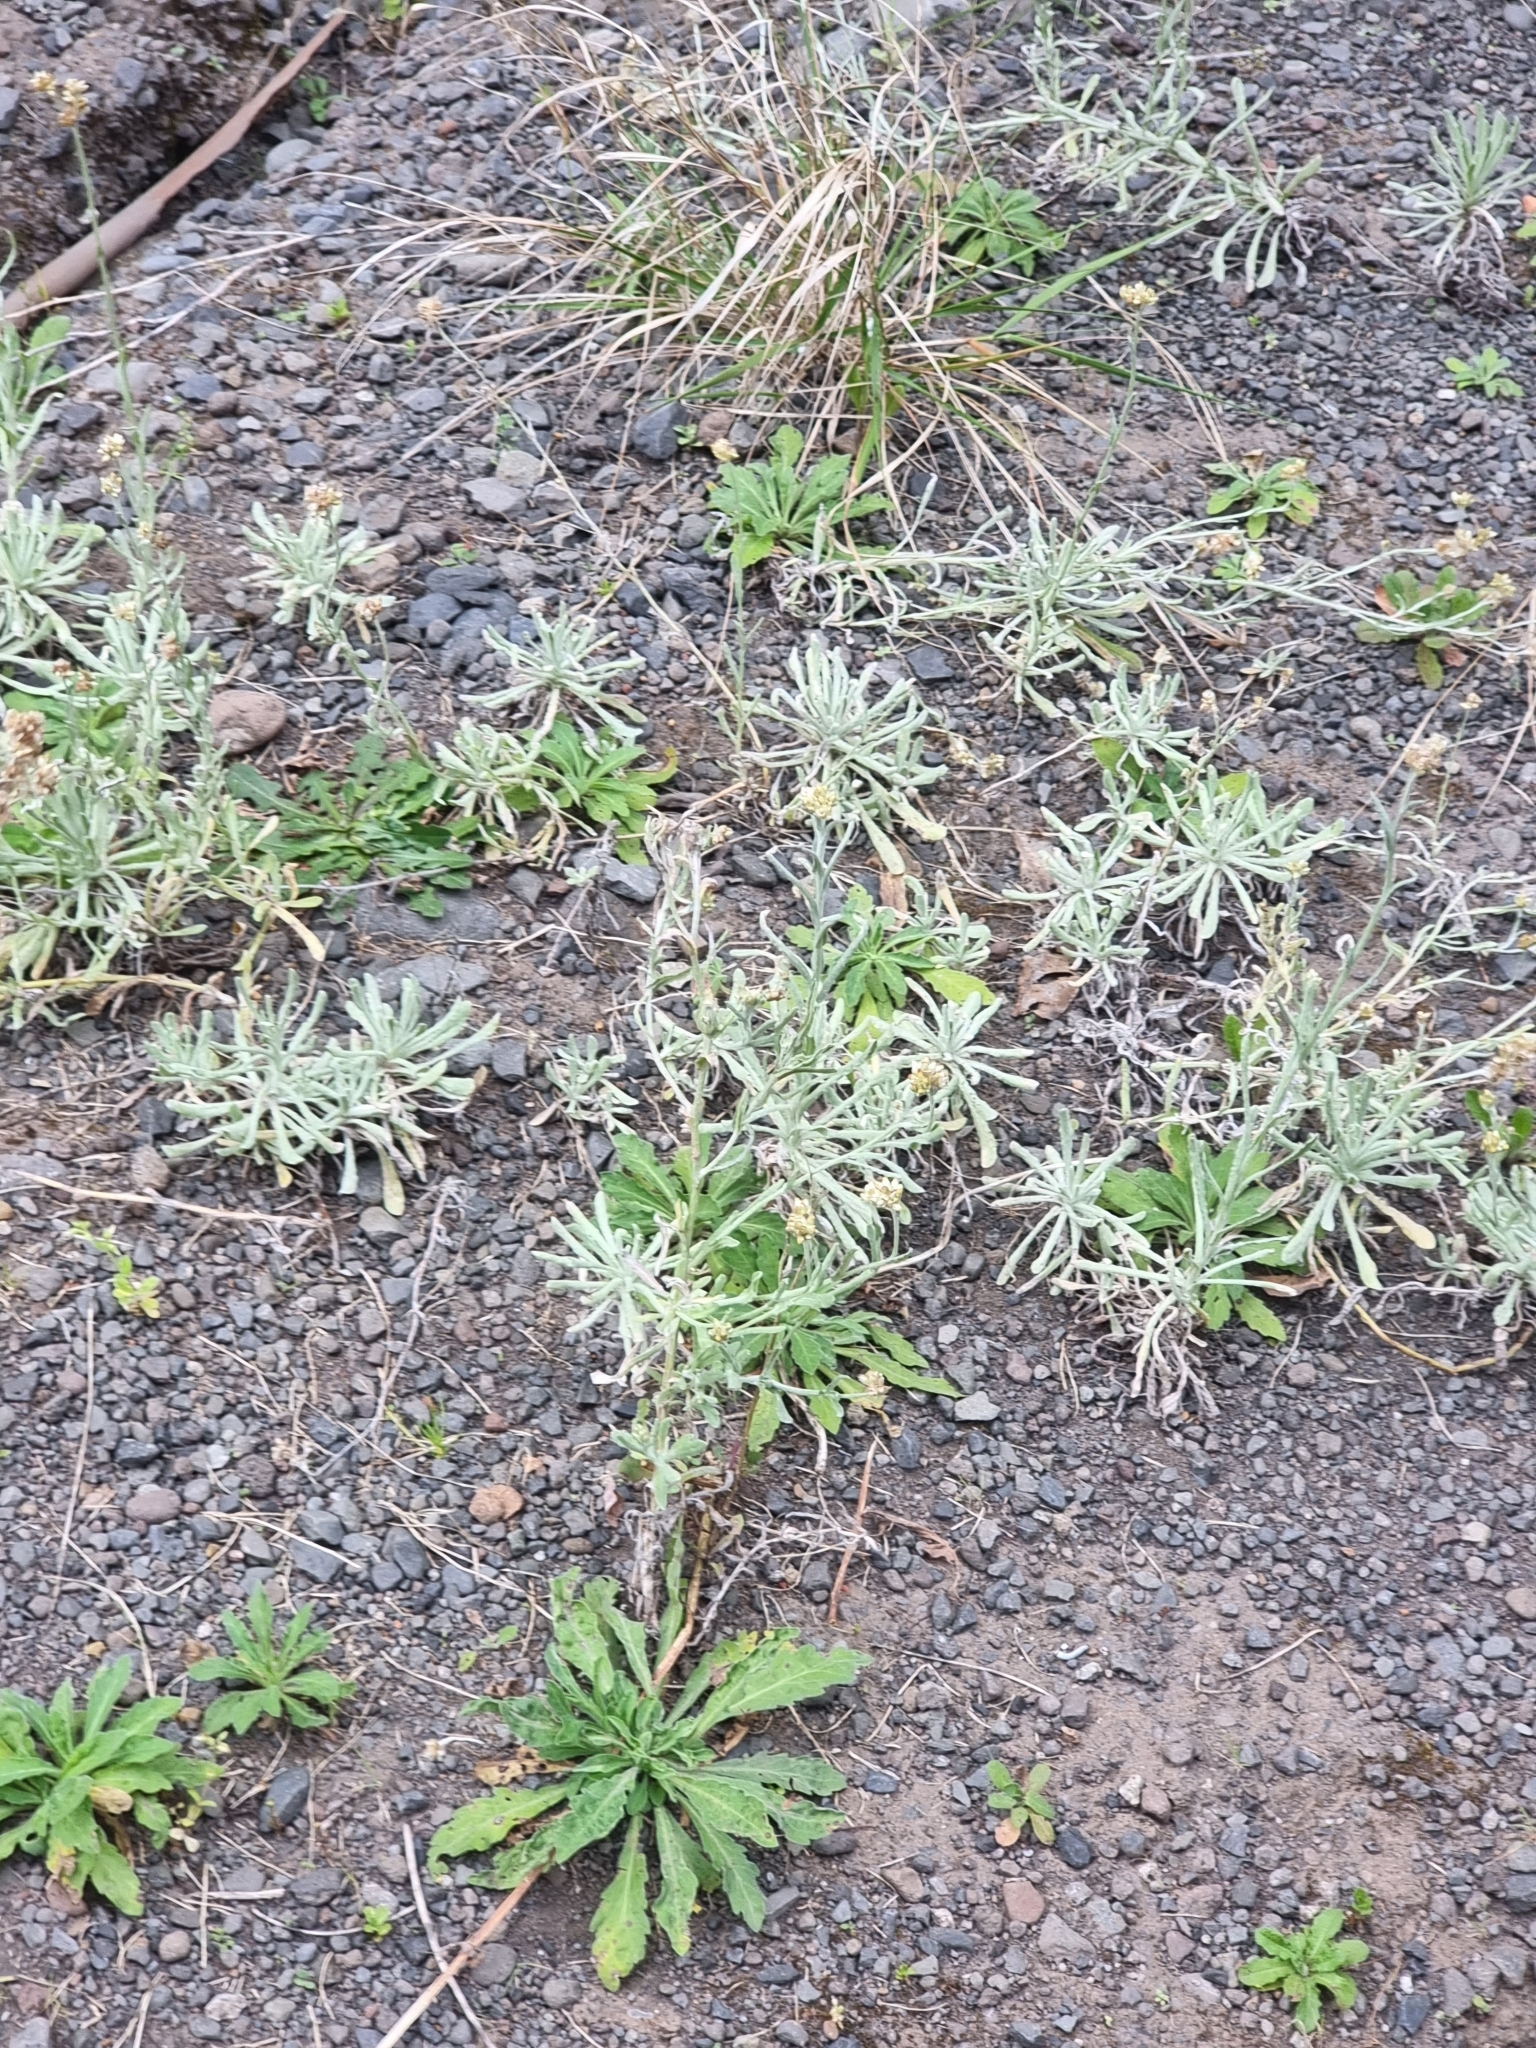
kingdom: Plantae
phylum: Tracheophyta
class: Magnoliopsida
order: Asterales
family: Asteraceae
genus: Helichrysum
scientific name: Helichrysum luteoalbum
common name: Daisy
